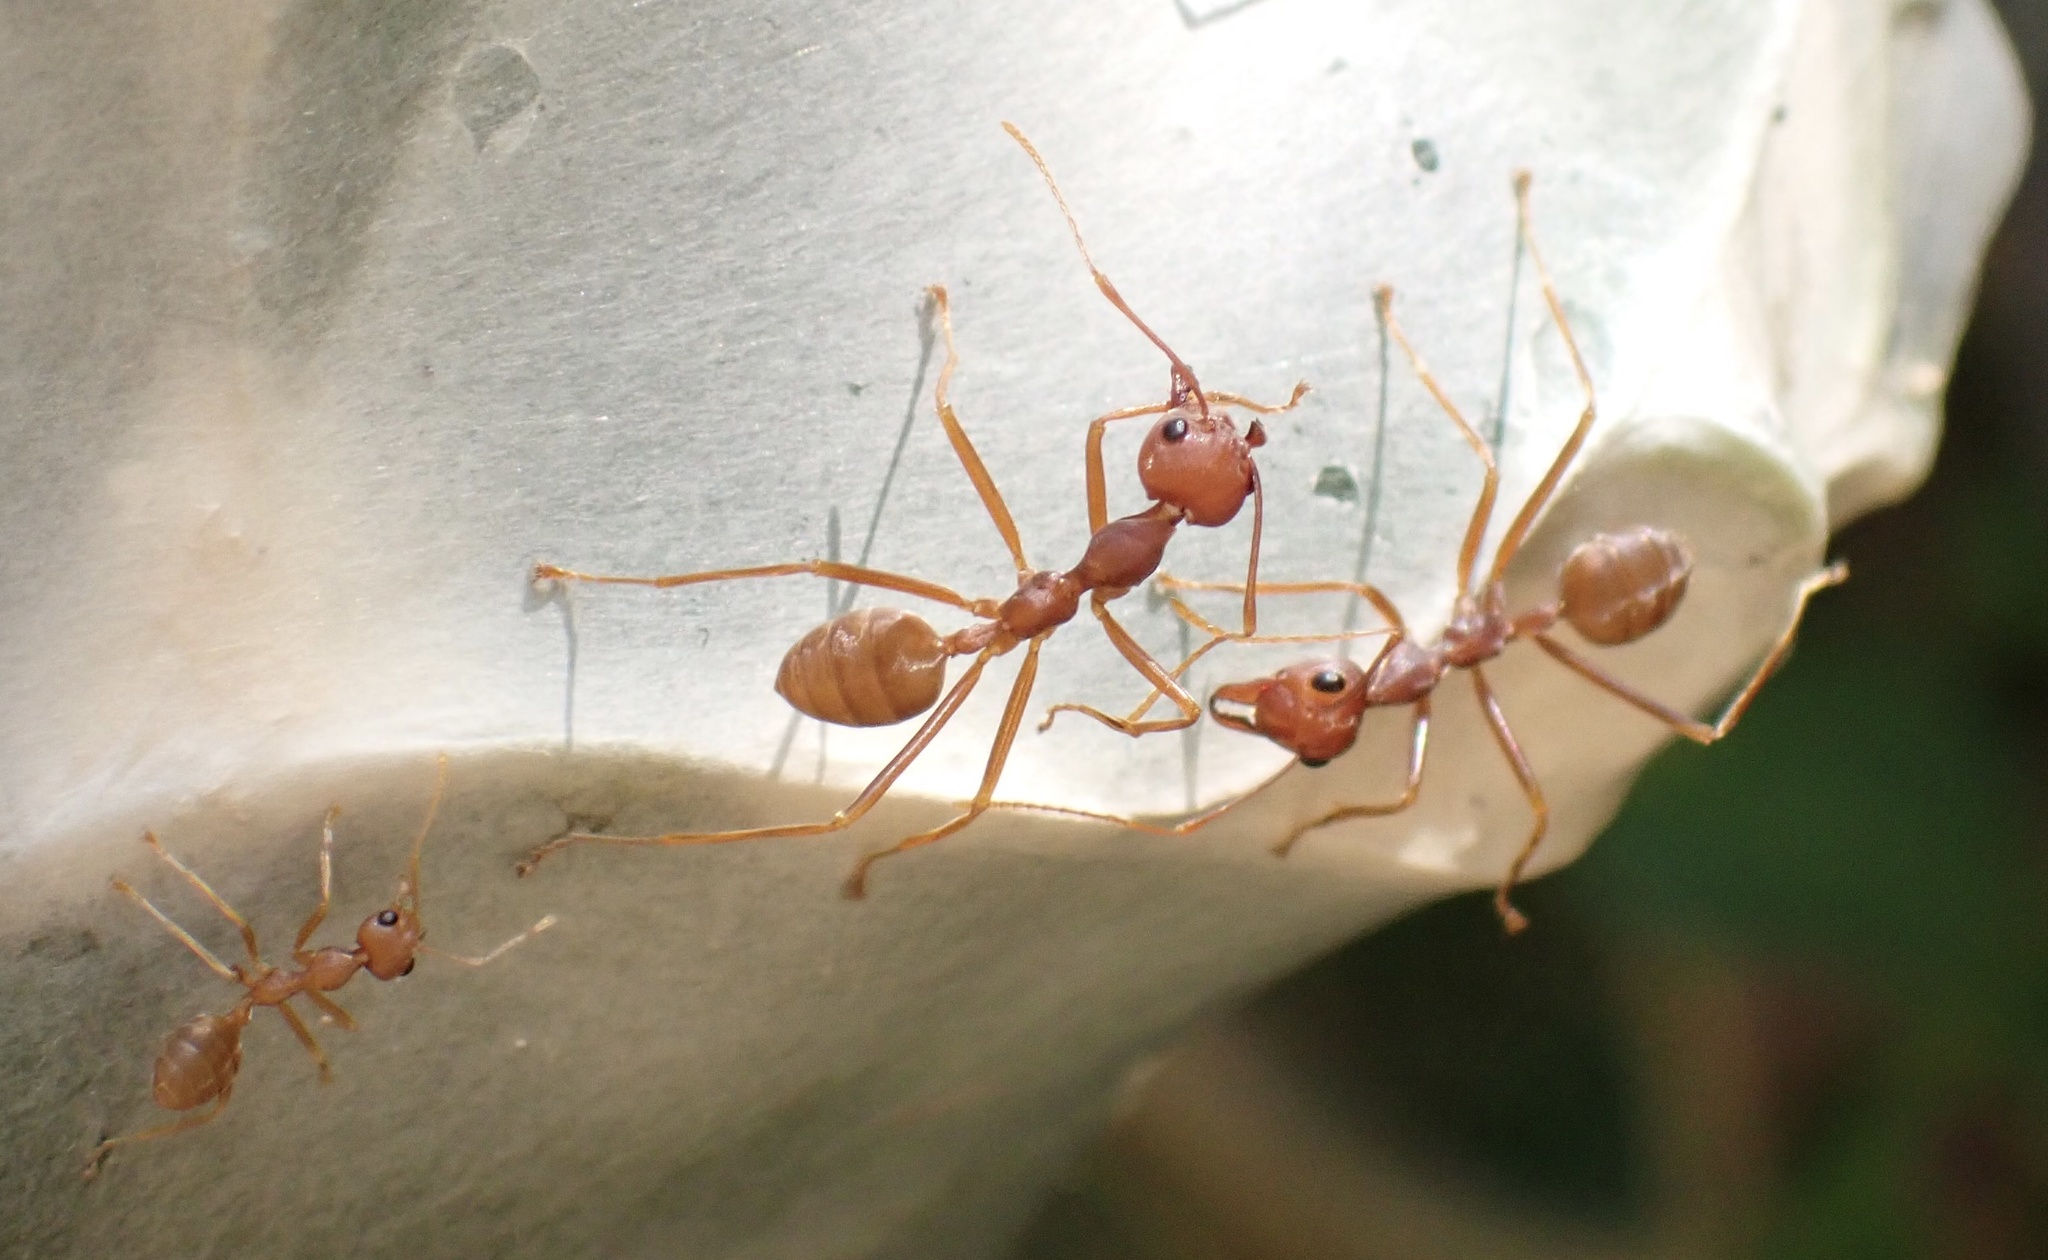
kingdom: Animalia
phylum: Arthropoda
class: Insecta
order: Hymenoptera
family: Formicidae
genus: Oecophylla
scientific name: Oecophylla longinoda
